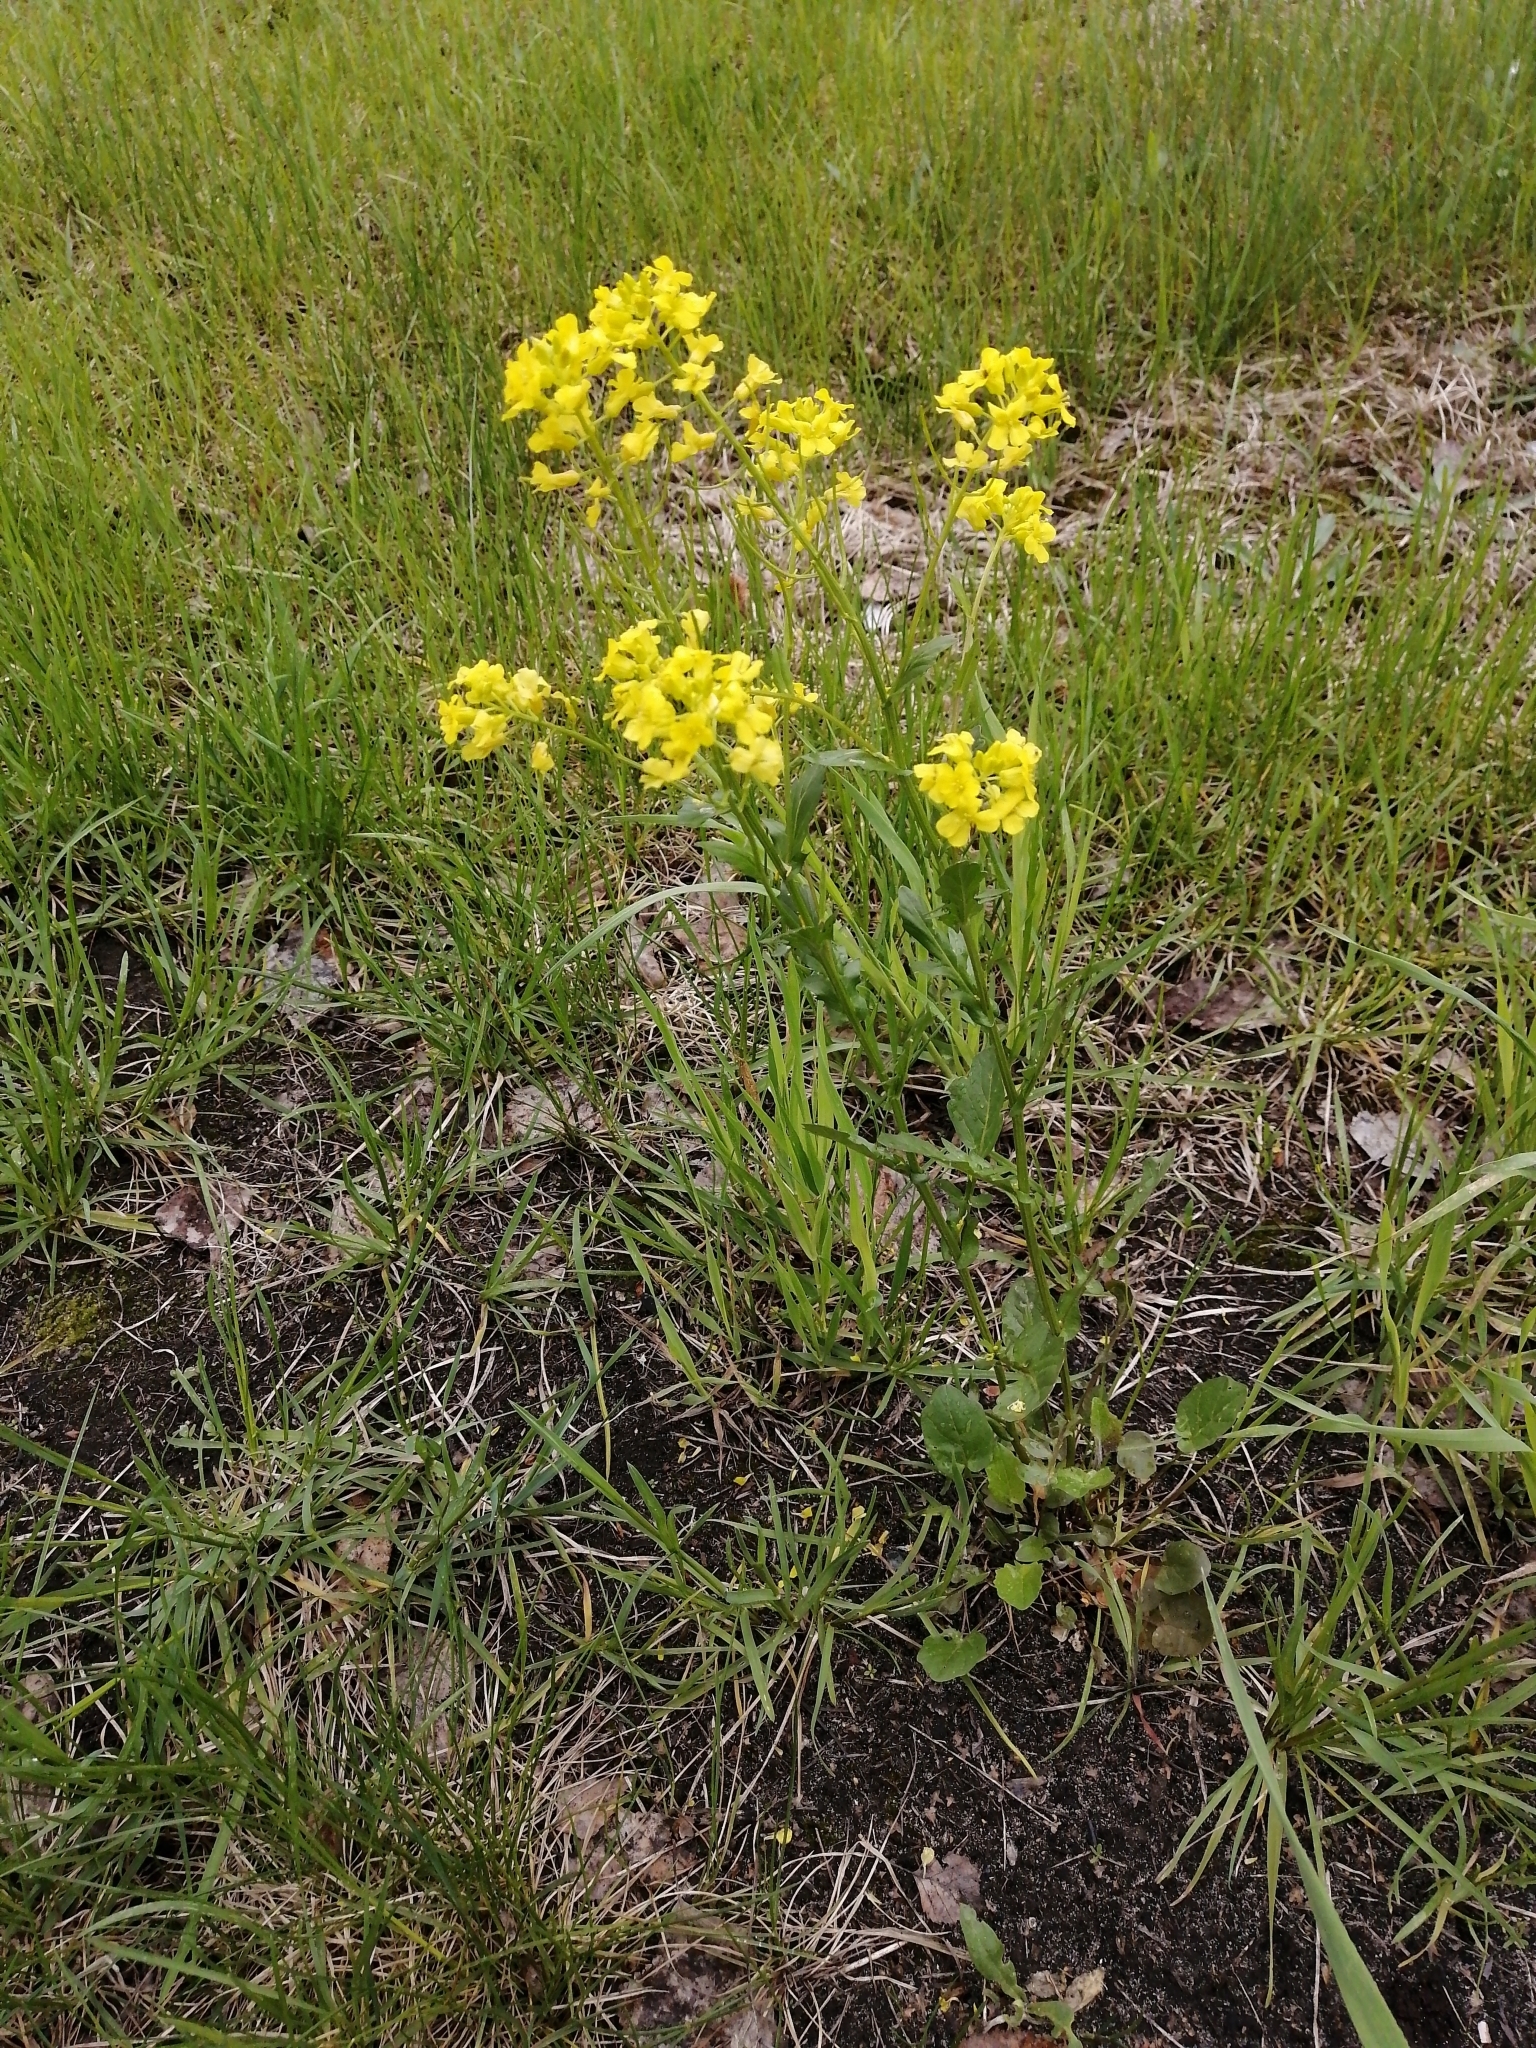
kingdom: Plantae
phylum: Tracheophyta
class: Magnoliopsida
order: Brassicales
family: Brassicaceae
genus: Barbarea
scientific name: Barbarea vulgaris
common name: Cressy-greens
